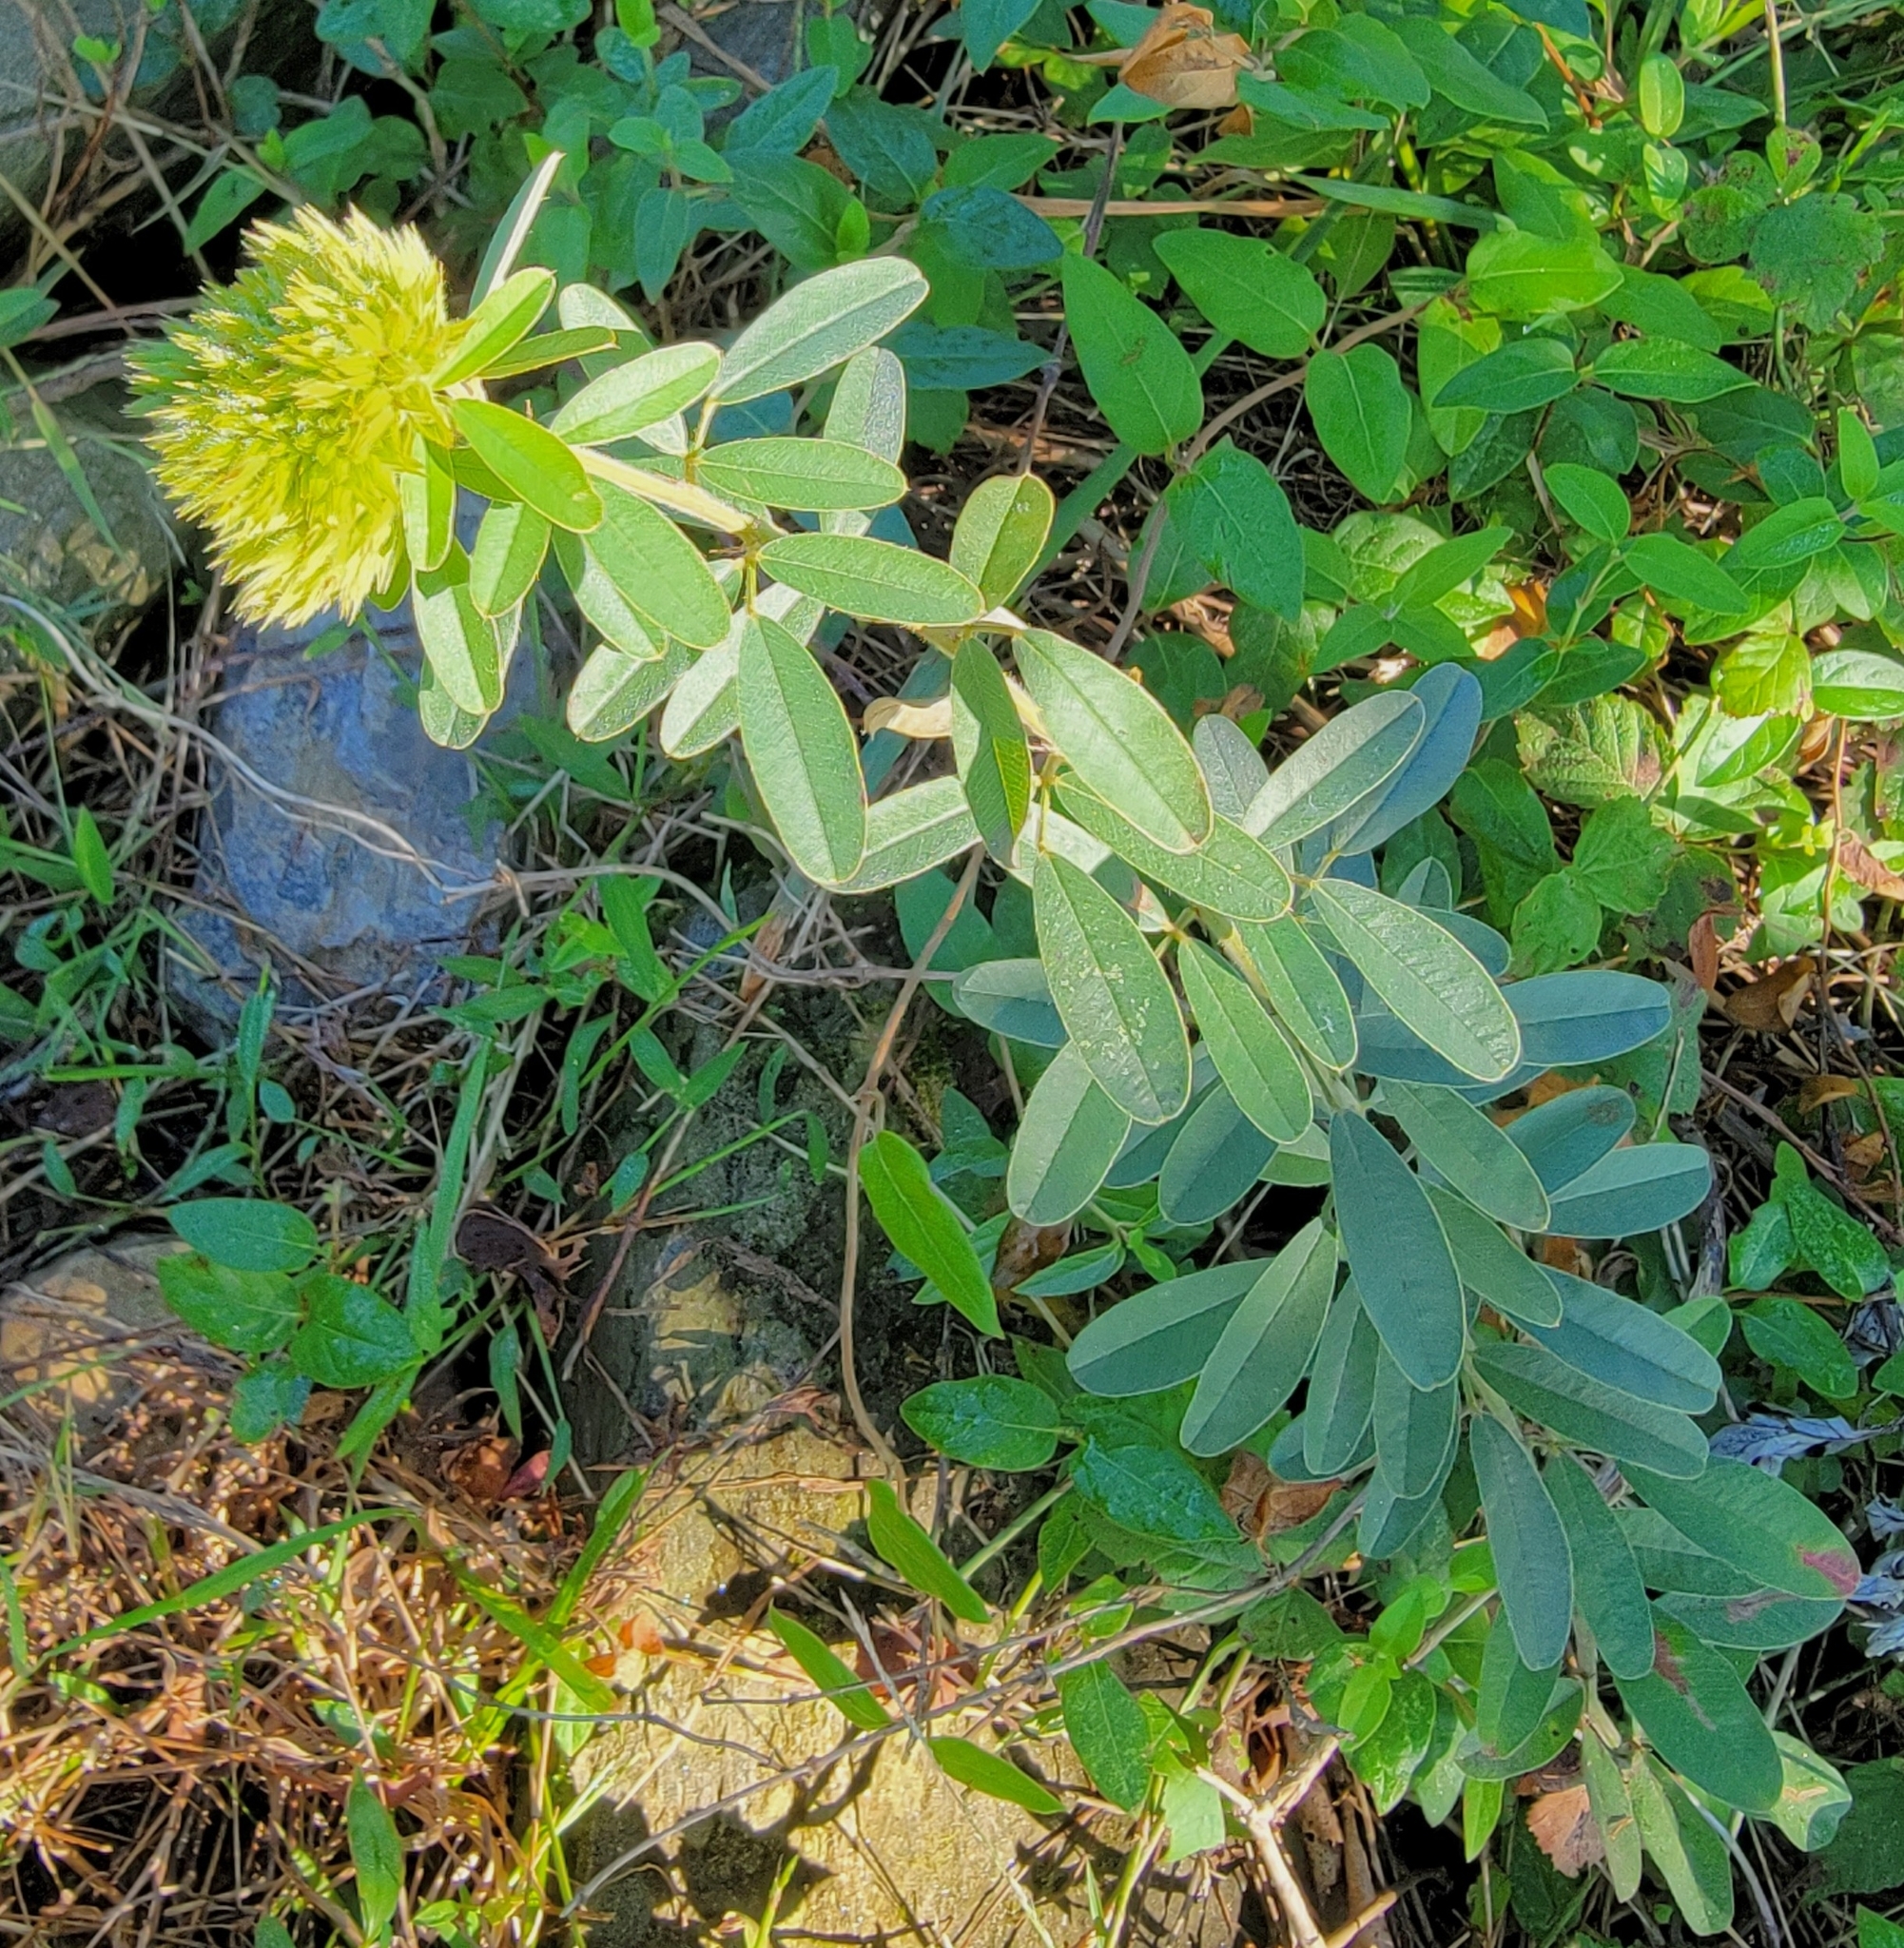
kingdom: Plantae
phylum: Tracheophyta
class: Magnoliopsida
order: Fabales
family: Fabaceae
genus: Lespedeza
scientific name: Lespedeza capitata
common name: Dusty clover
